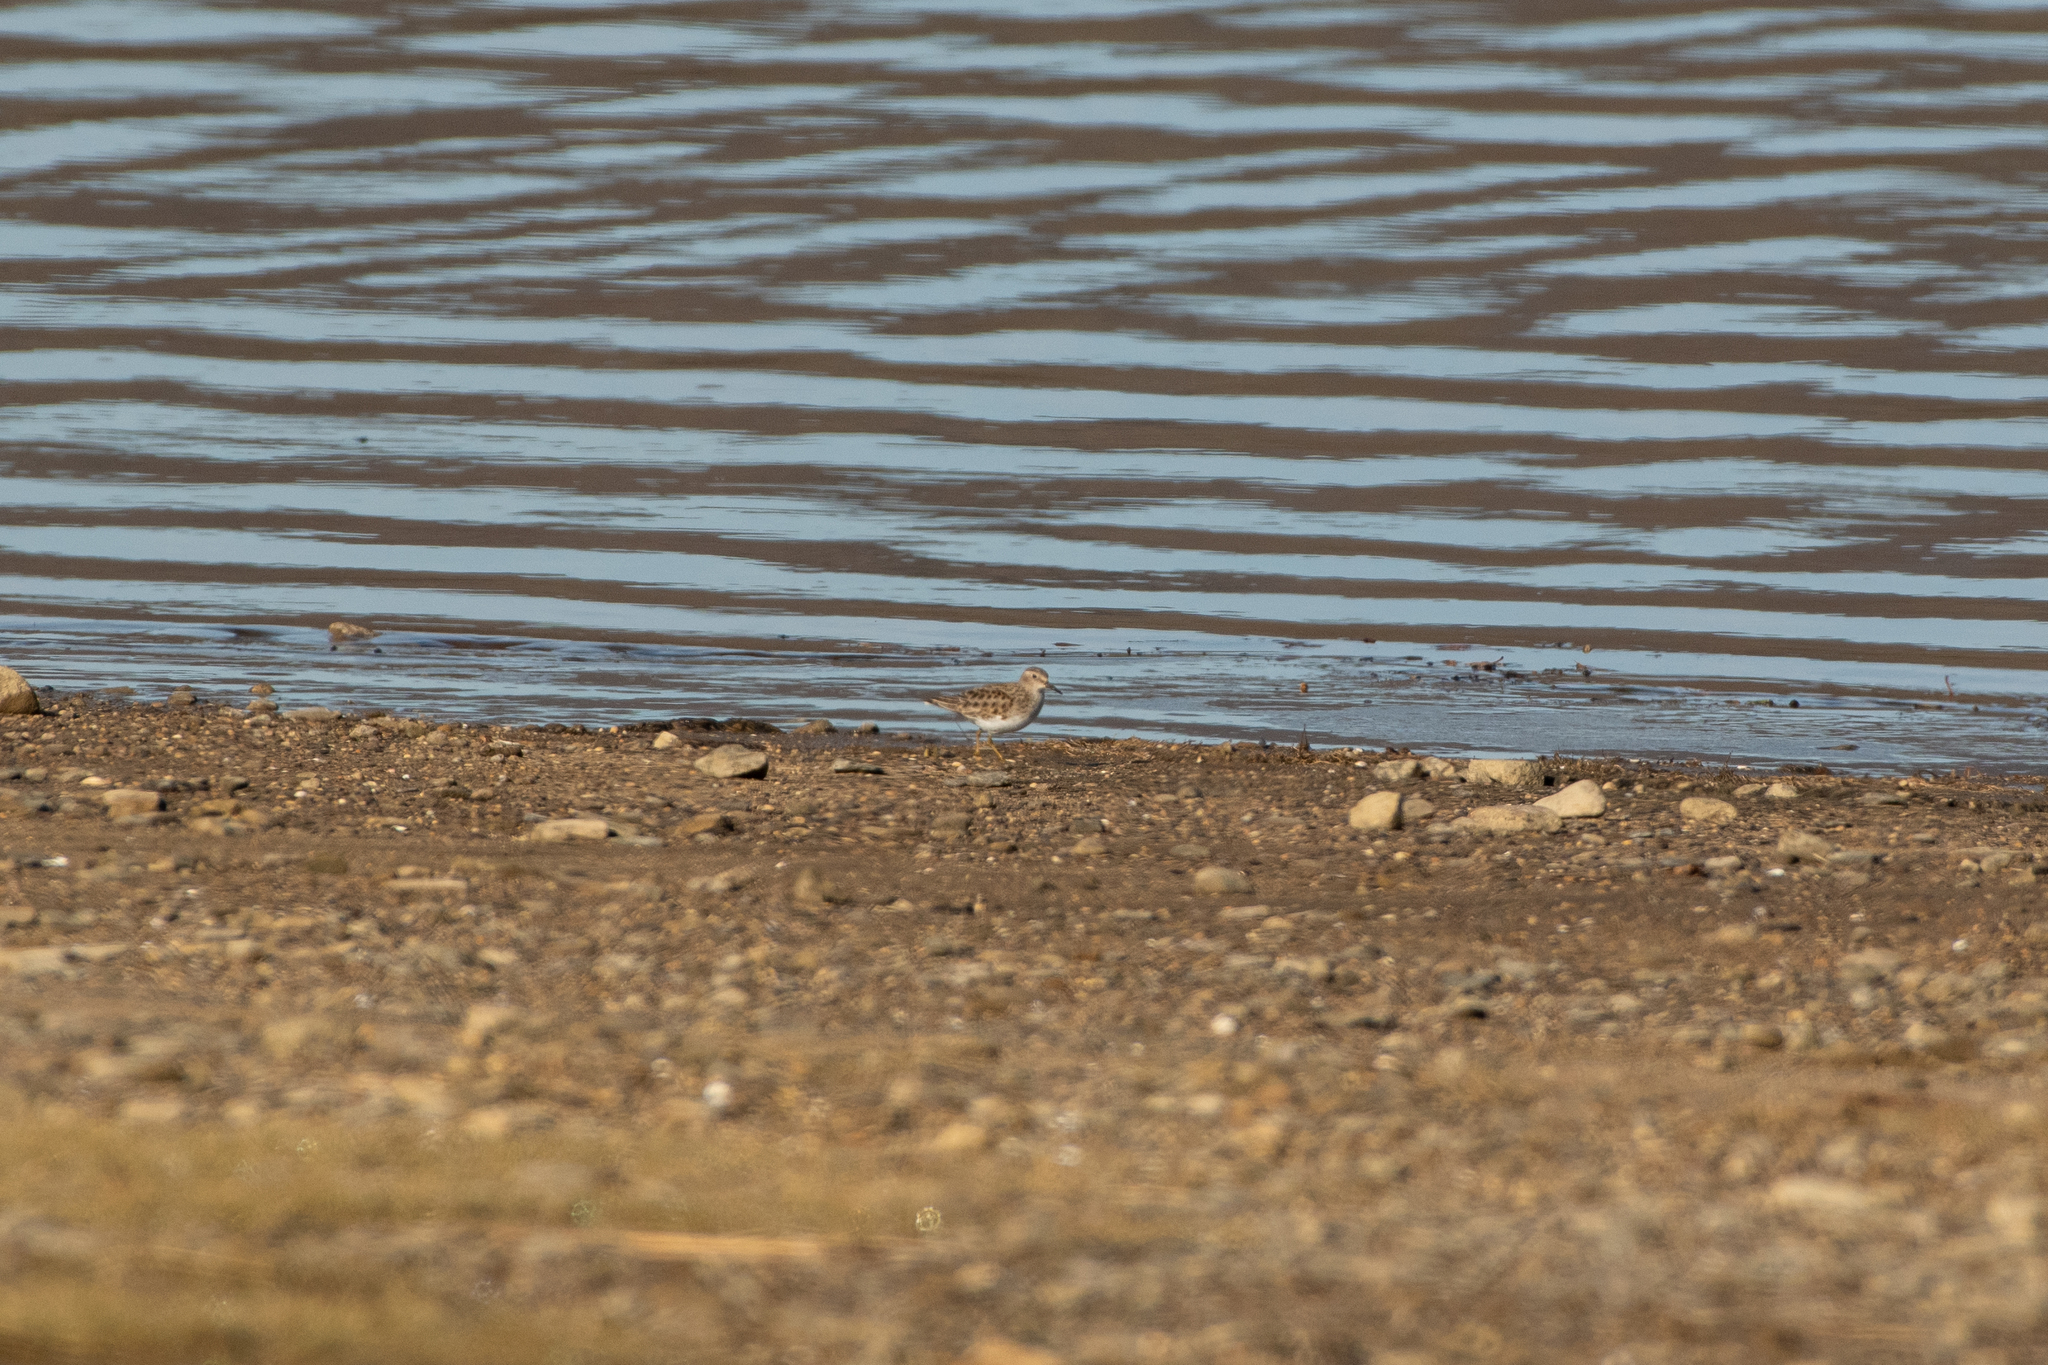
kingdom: Animalia
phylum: Chordata
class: Aves
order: Charadriiformes
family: Scolopacidae
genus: Calidris
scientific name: Calidris minutilla
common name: Least sandpiper
